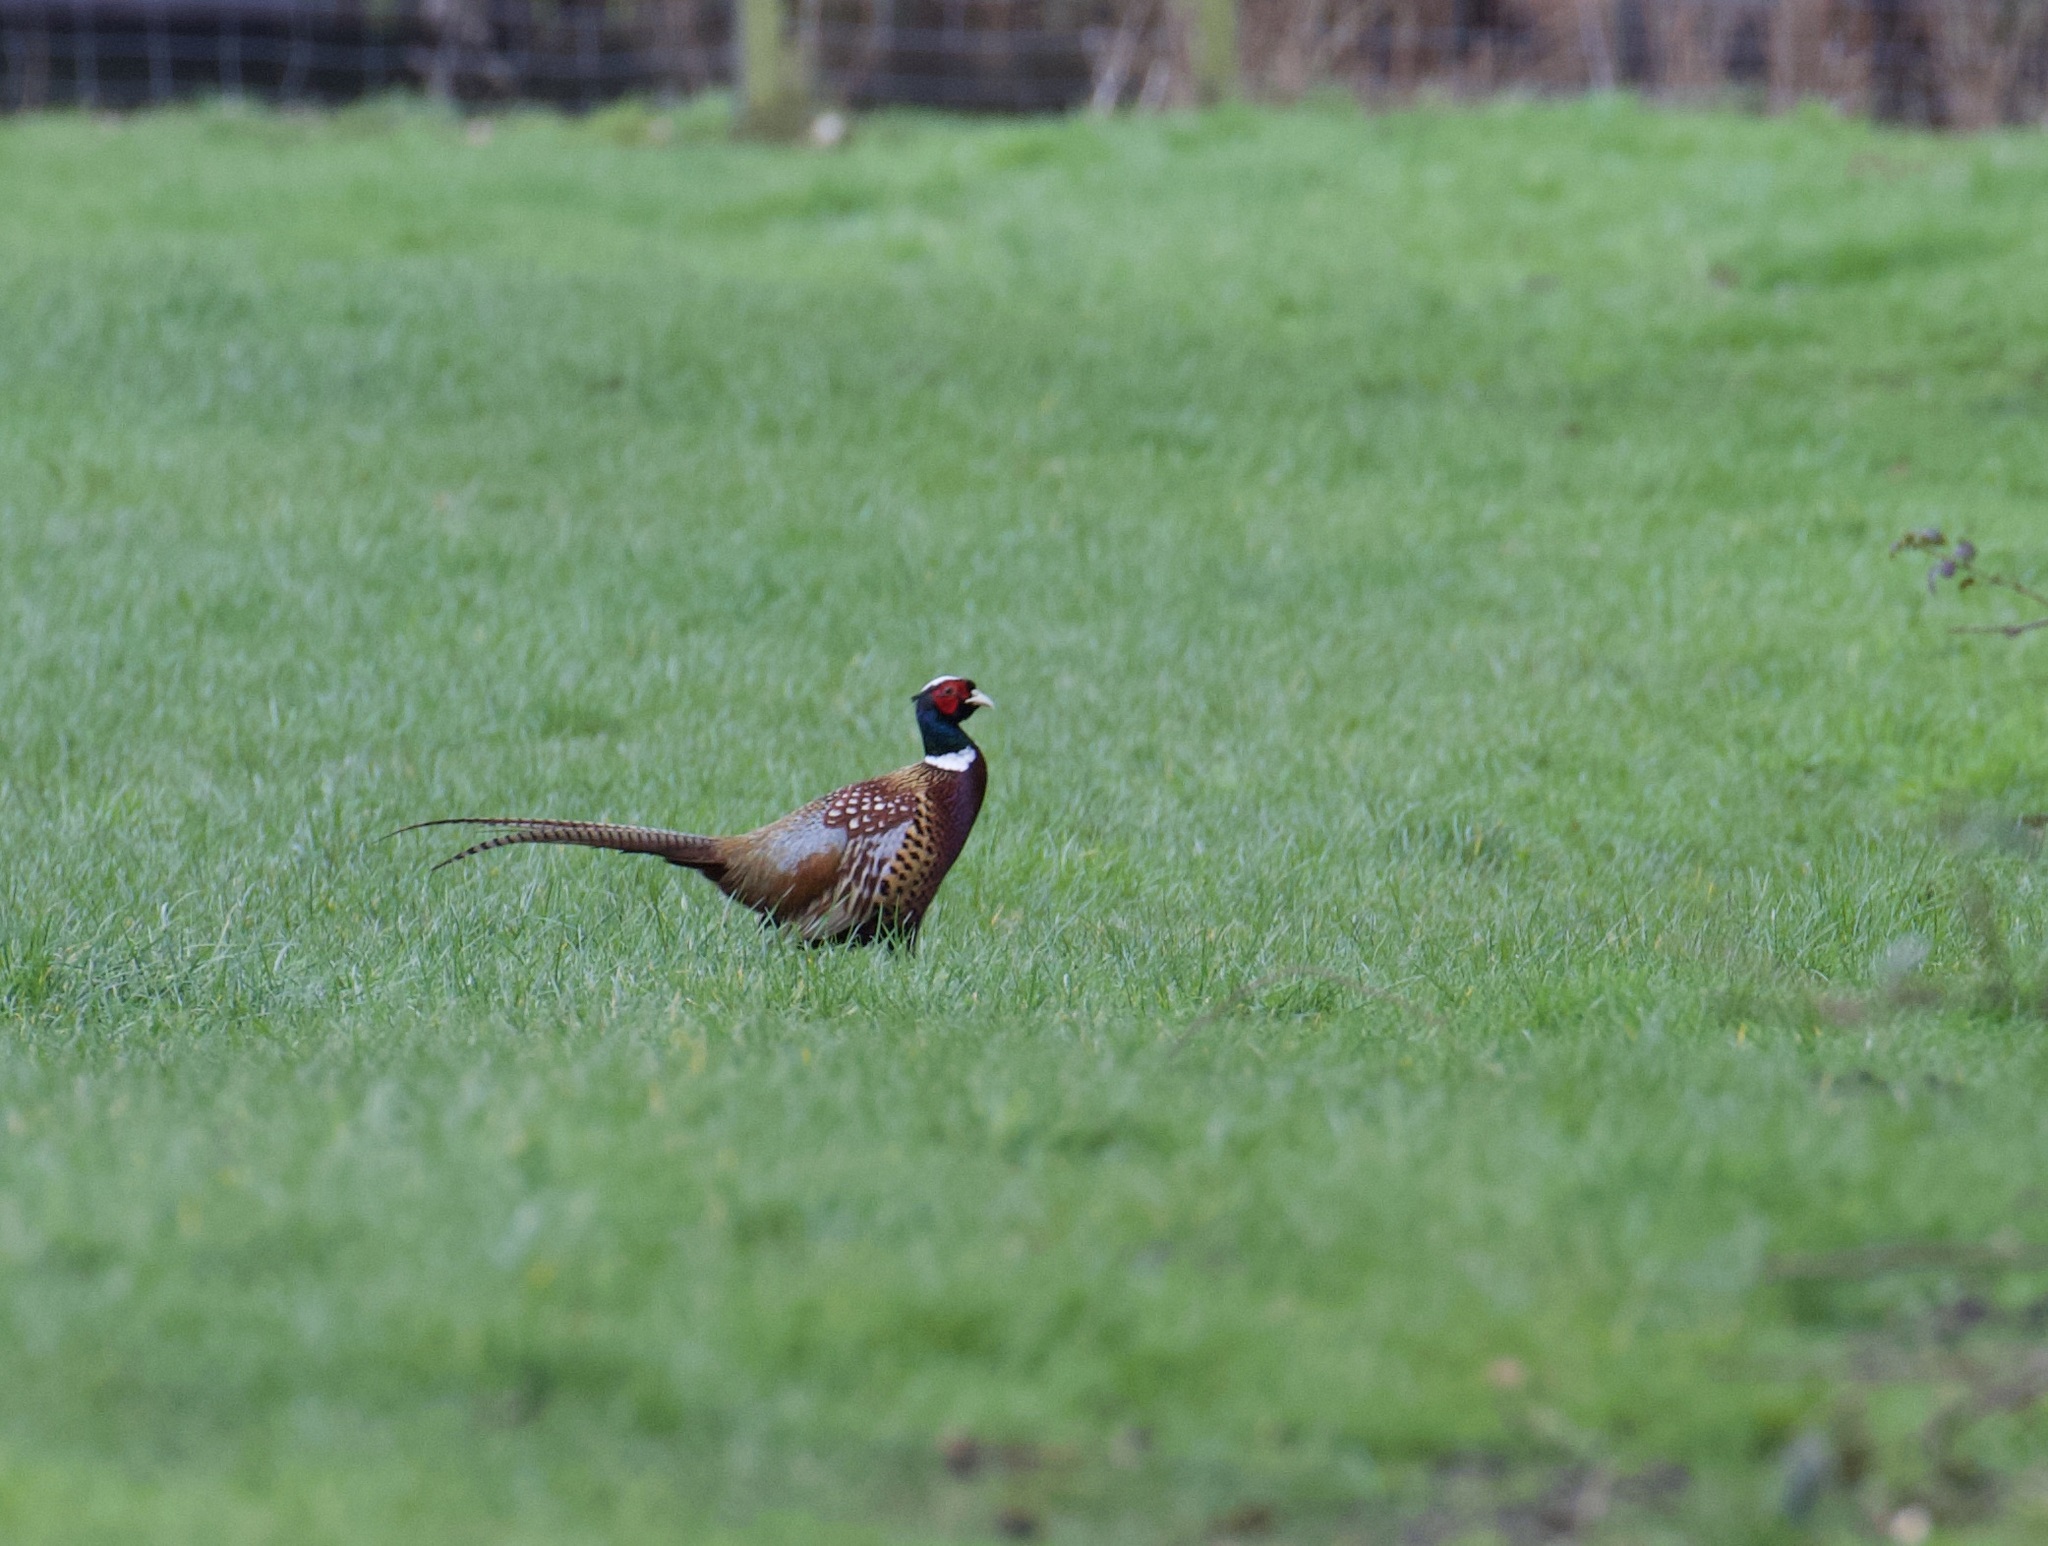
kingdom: Animalia
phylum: Chordata
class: Aves
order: Galliformes
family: Phasianidae
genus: Phasianus
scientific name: Phasianus colchicus
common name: Common pheasant
